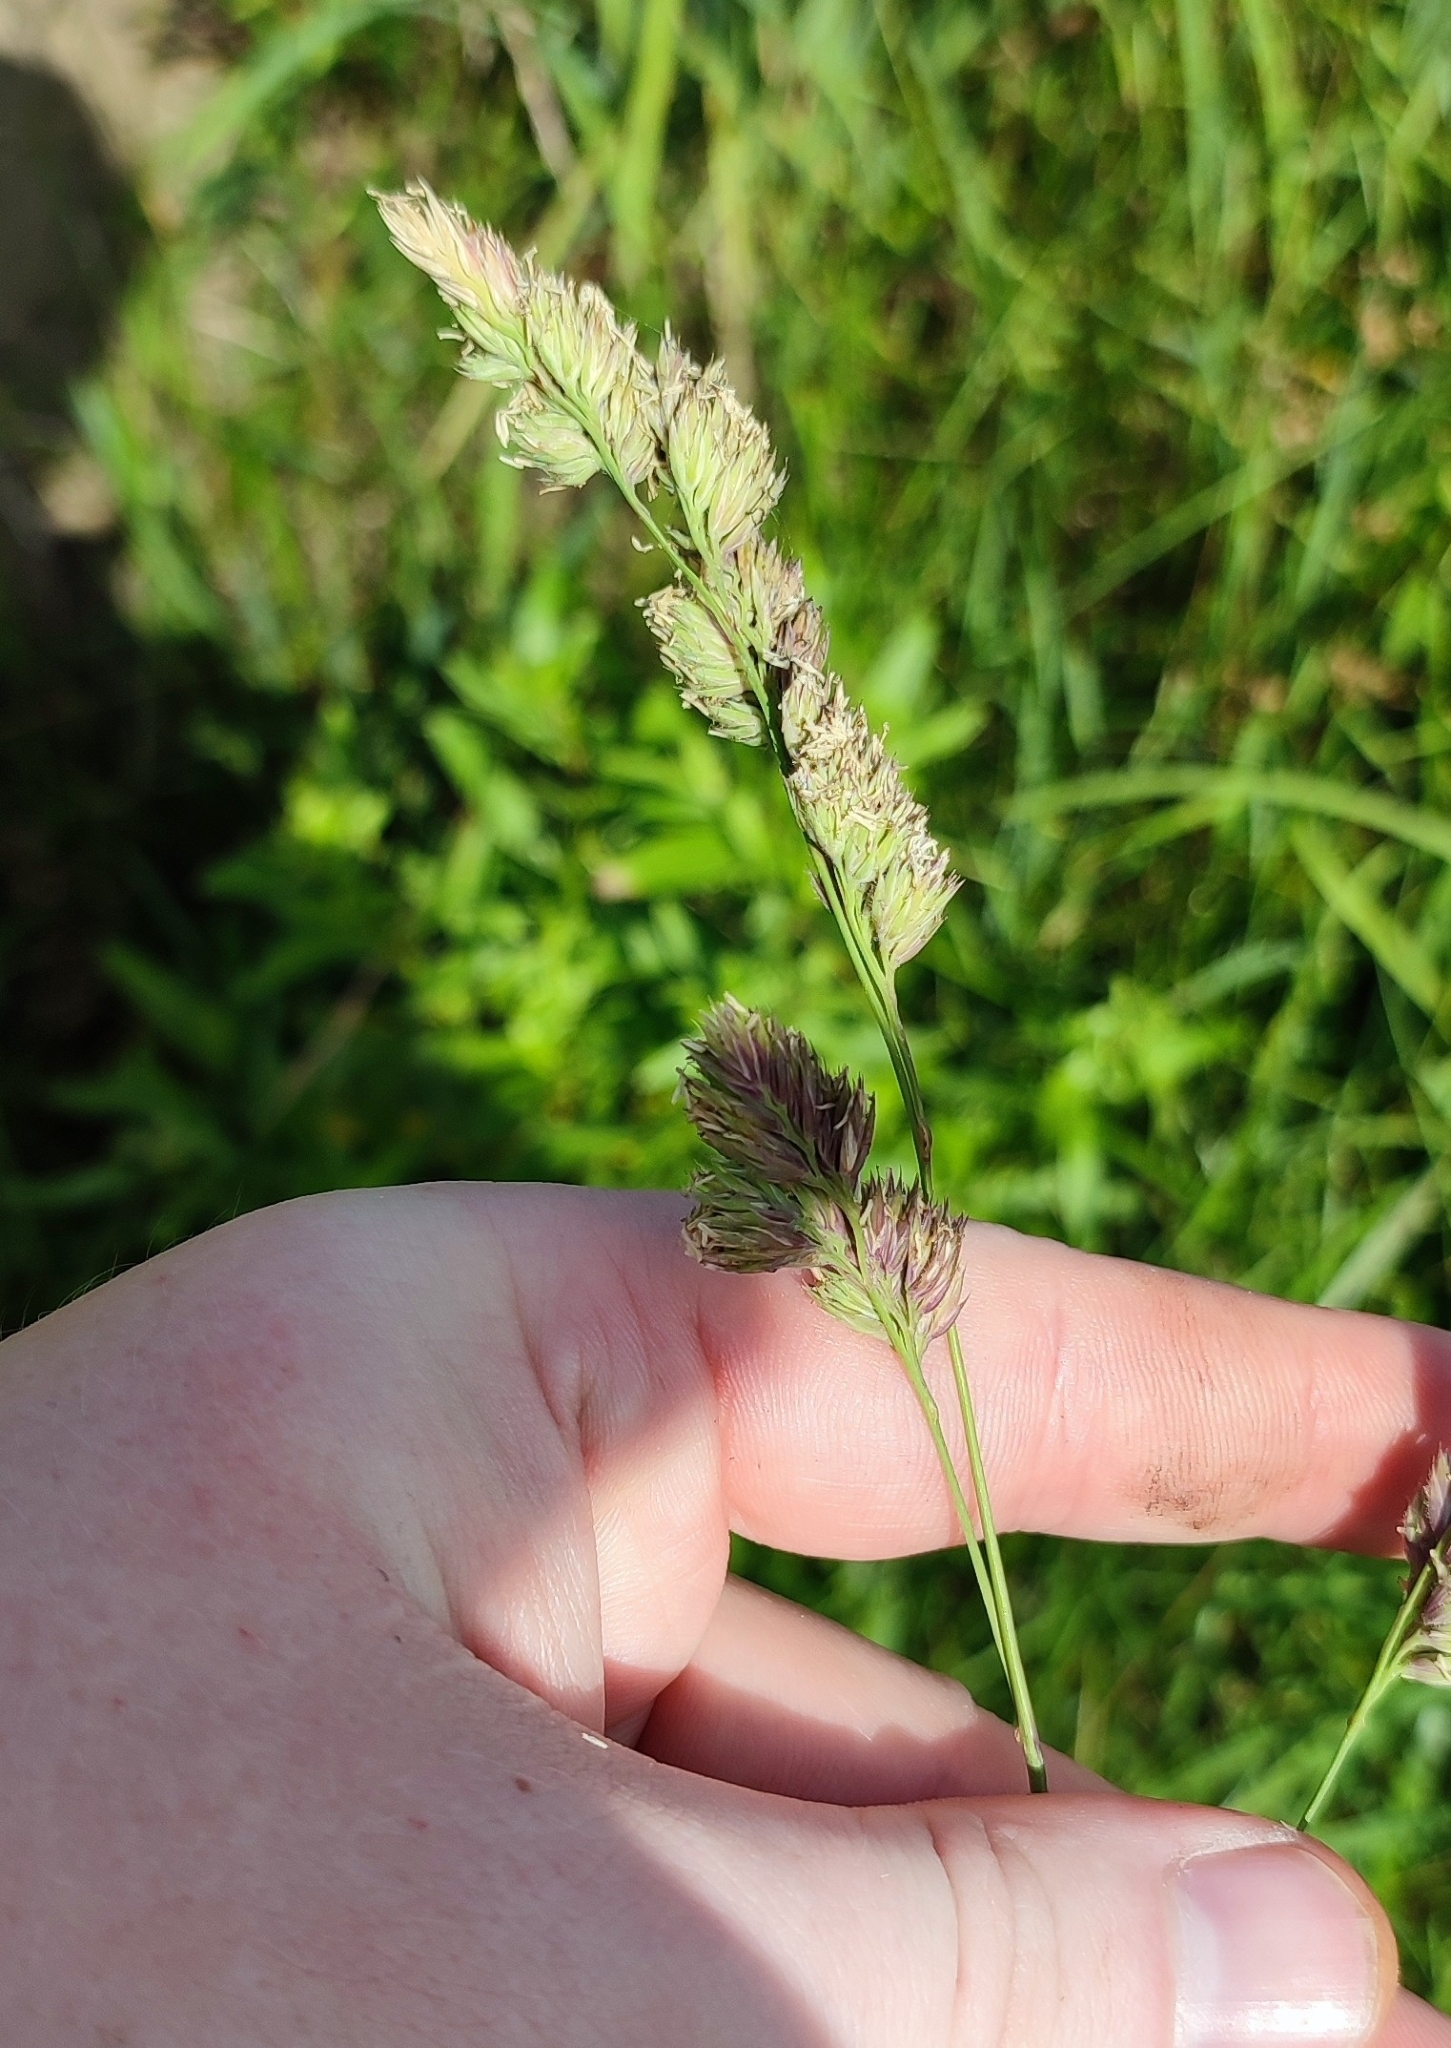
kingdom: Plantae
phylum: Tracheophyta
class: Liliopsida
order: Poales
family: Poaceae
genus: Dactylis
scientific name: Dactylis glomerata
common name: Orchardgrass
